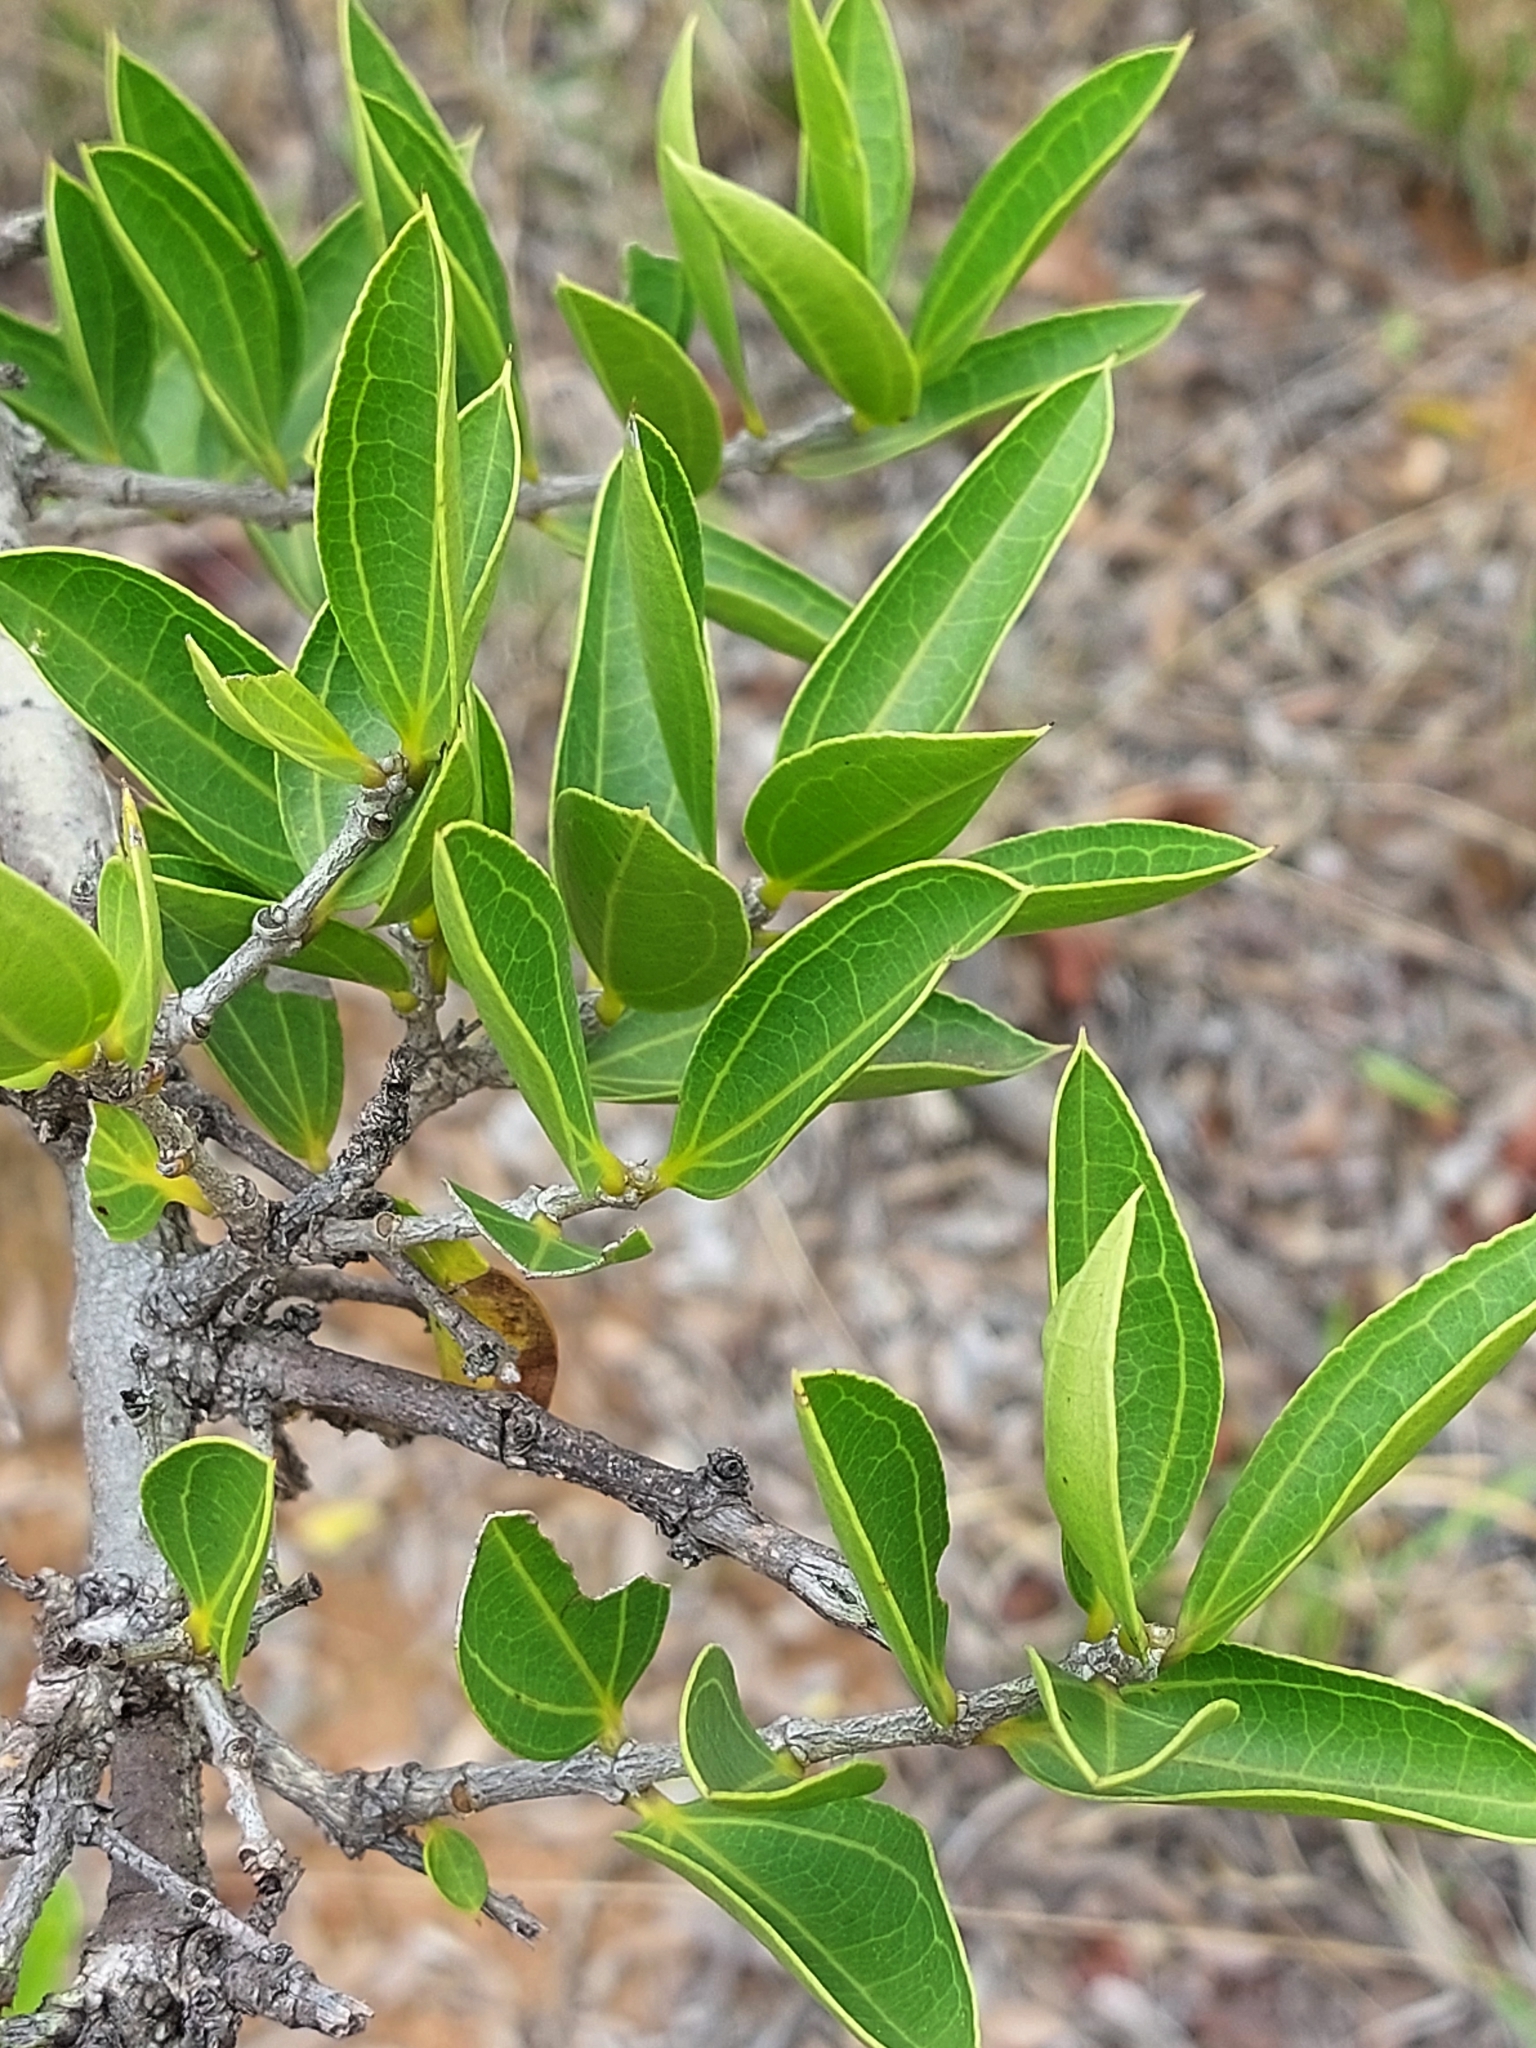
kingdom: Plantae
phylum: Tracheophyta
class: Magnoliopsida
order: Gentianales
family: Loganiaceae
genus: Strychnos
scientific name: Strychnos pungens
